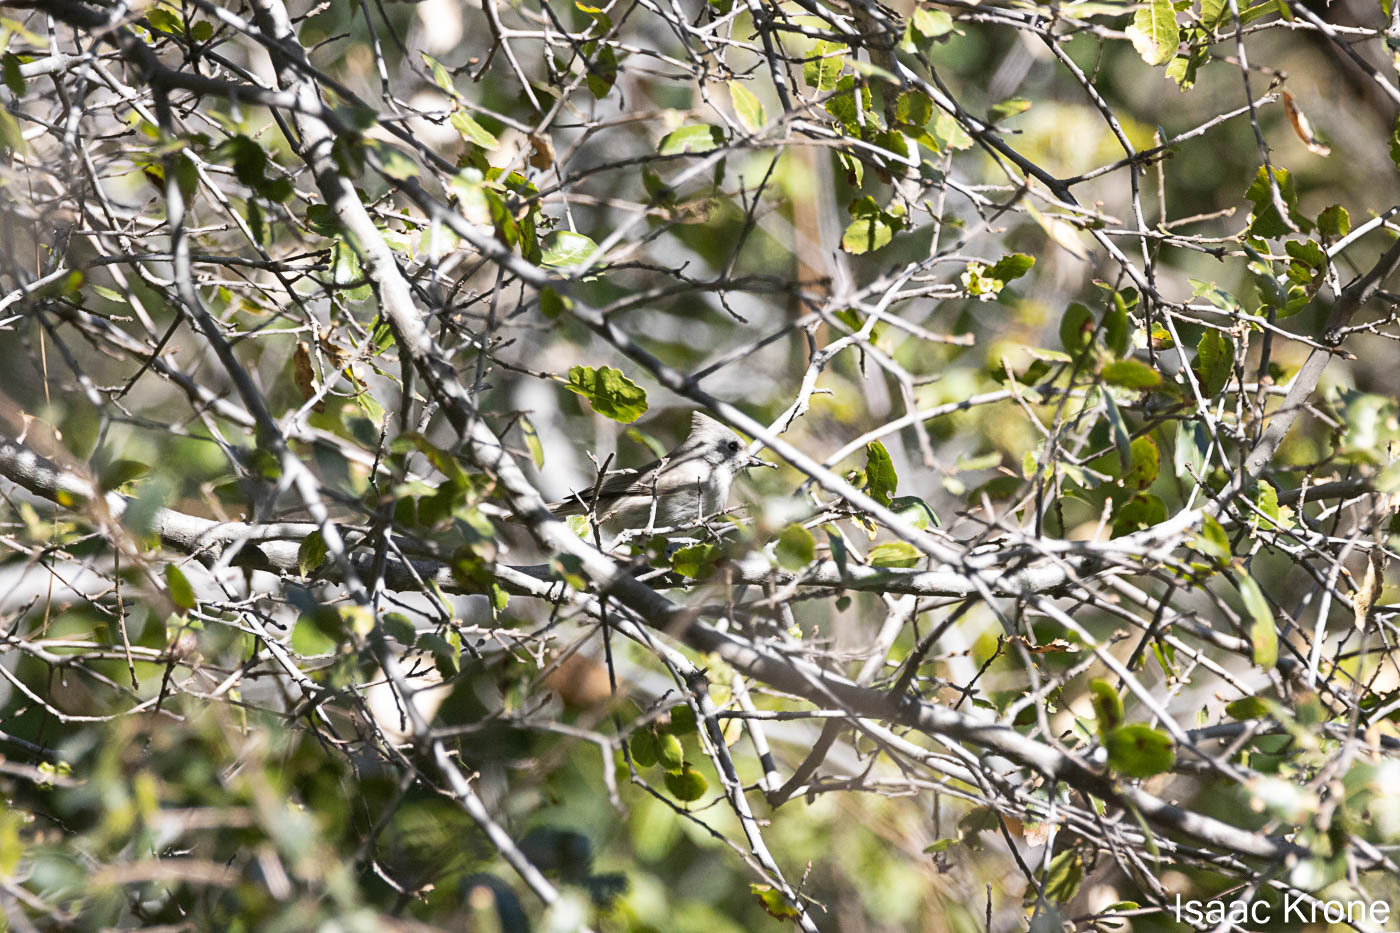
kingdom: Animalia
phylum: Chordata
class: Aves
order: Passeriformes
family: Paridae
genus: Baeolophus
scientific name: Baeolophus inornatus
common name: Oak titmouse
